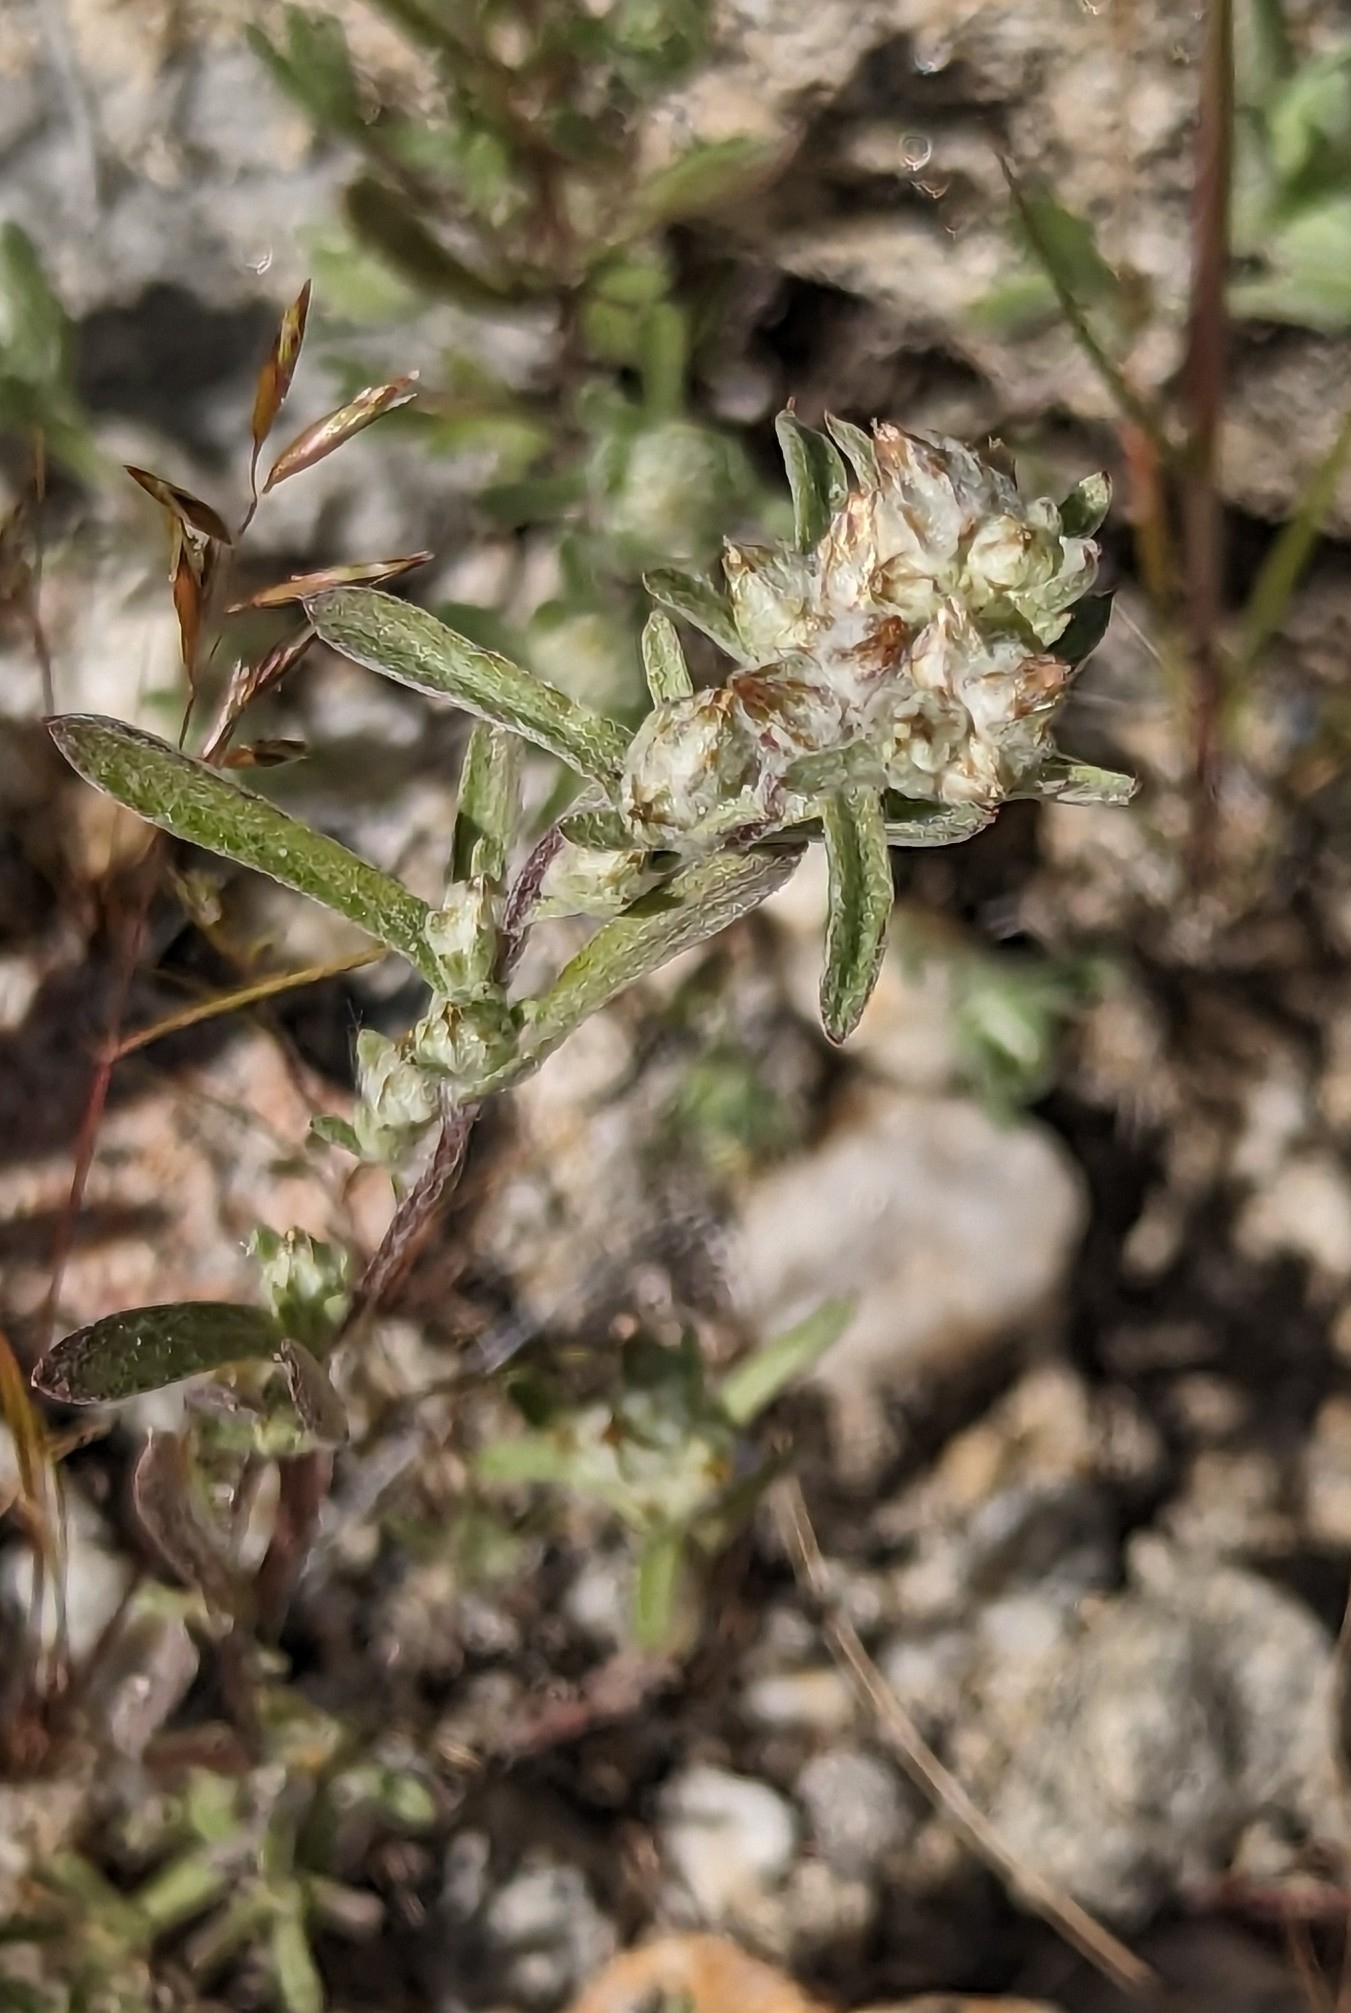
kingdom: Plantae
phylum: Tracheophyta
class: Magnoliopsida
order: Asterales
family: Asteraceae
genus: Logfia
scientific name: Logfia californica
